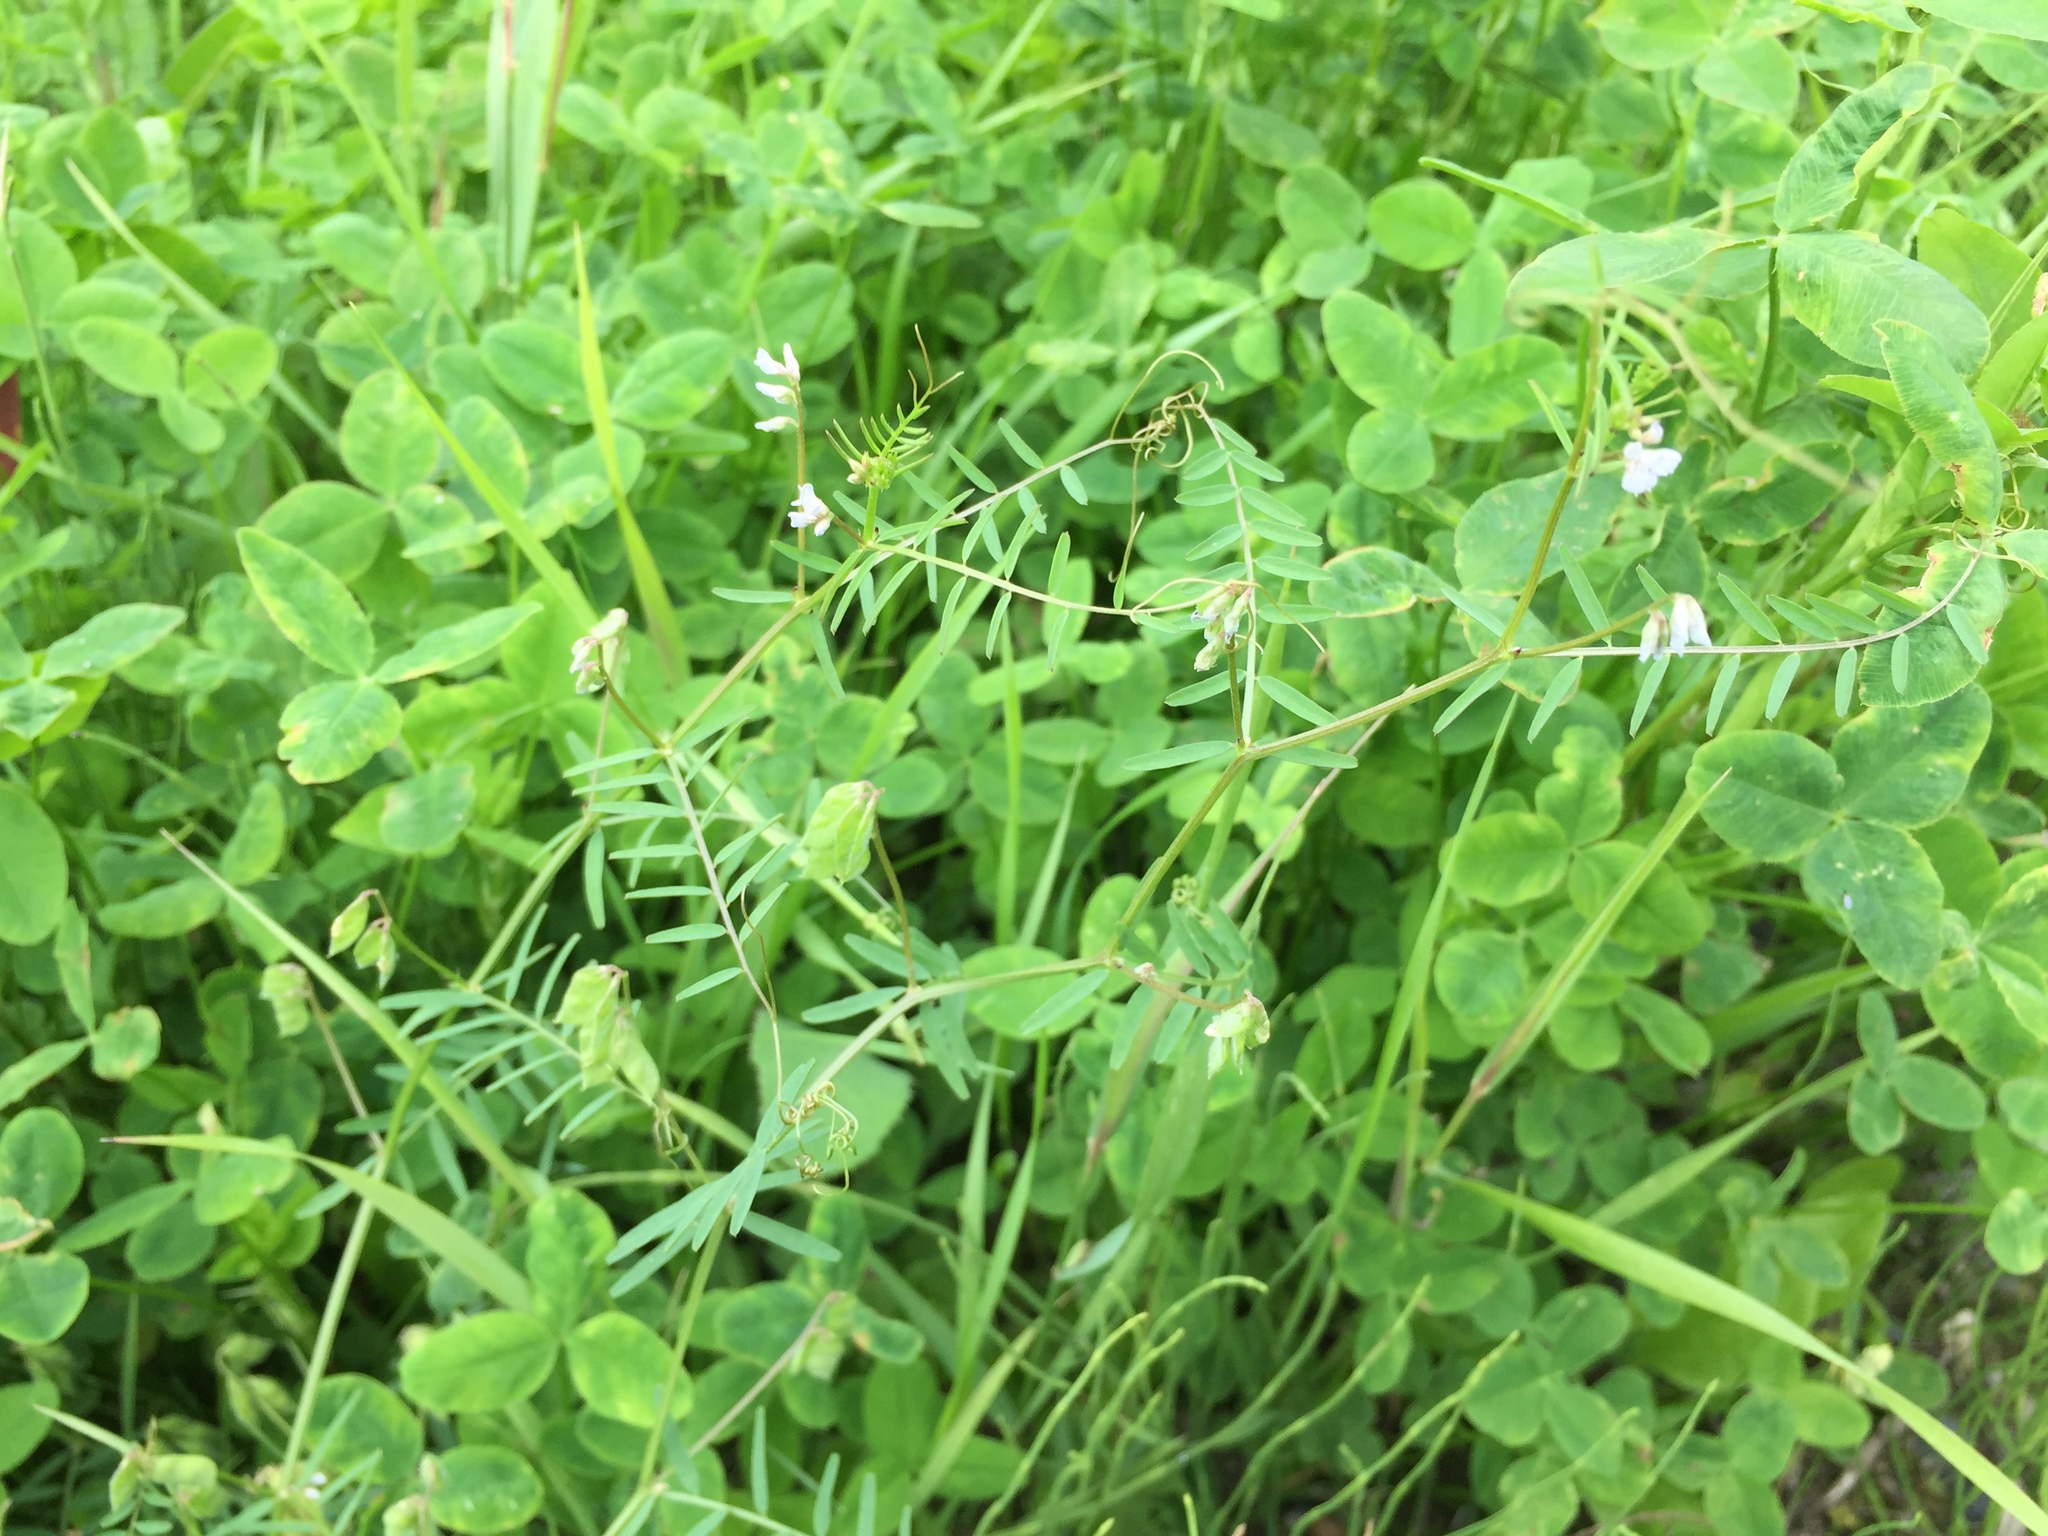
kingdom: Plantae
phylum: Tracheophyta
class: Magnoliopsida
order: Fabales
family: Fabaceae
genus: Vicia
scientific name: Vicia hirsuta
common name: Tiny vetch
